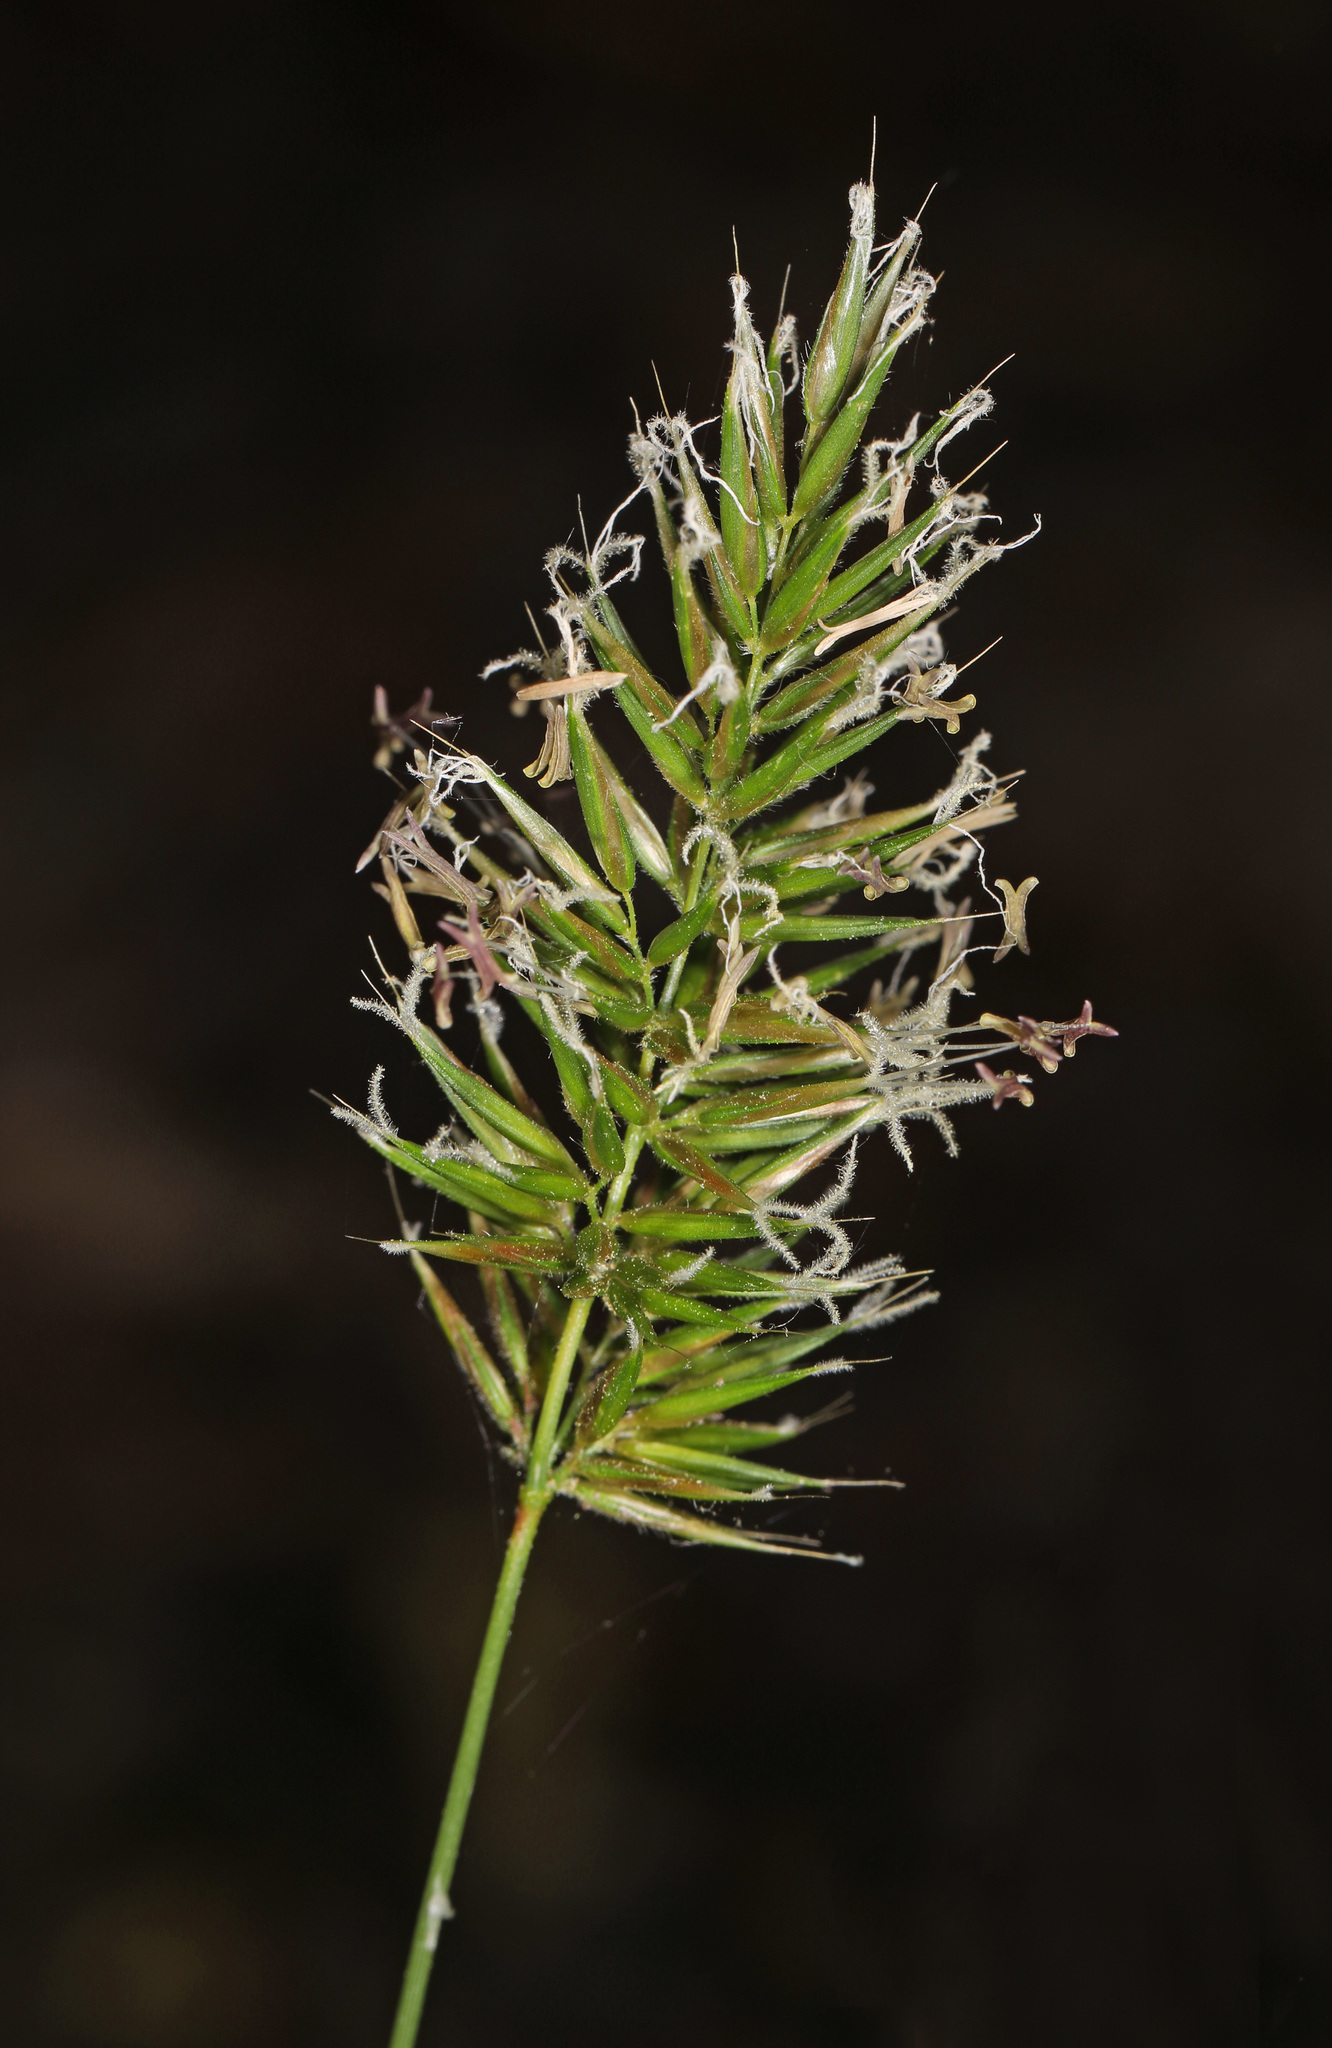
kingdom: Plantae
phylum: Tracheophyta
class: Liliopsida
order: Poales
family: Poaceae
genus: Anthoxanthum
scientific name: Anthoxanthum odoratum
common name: Sweet vernalgrass
